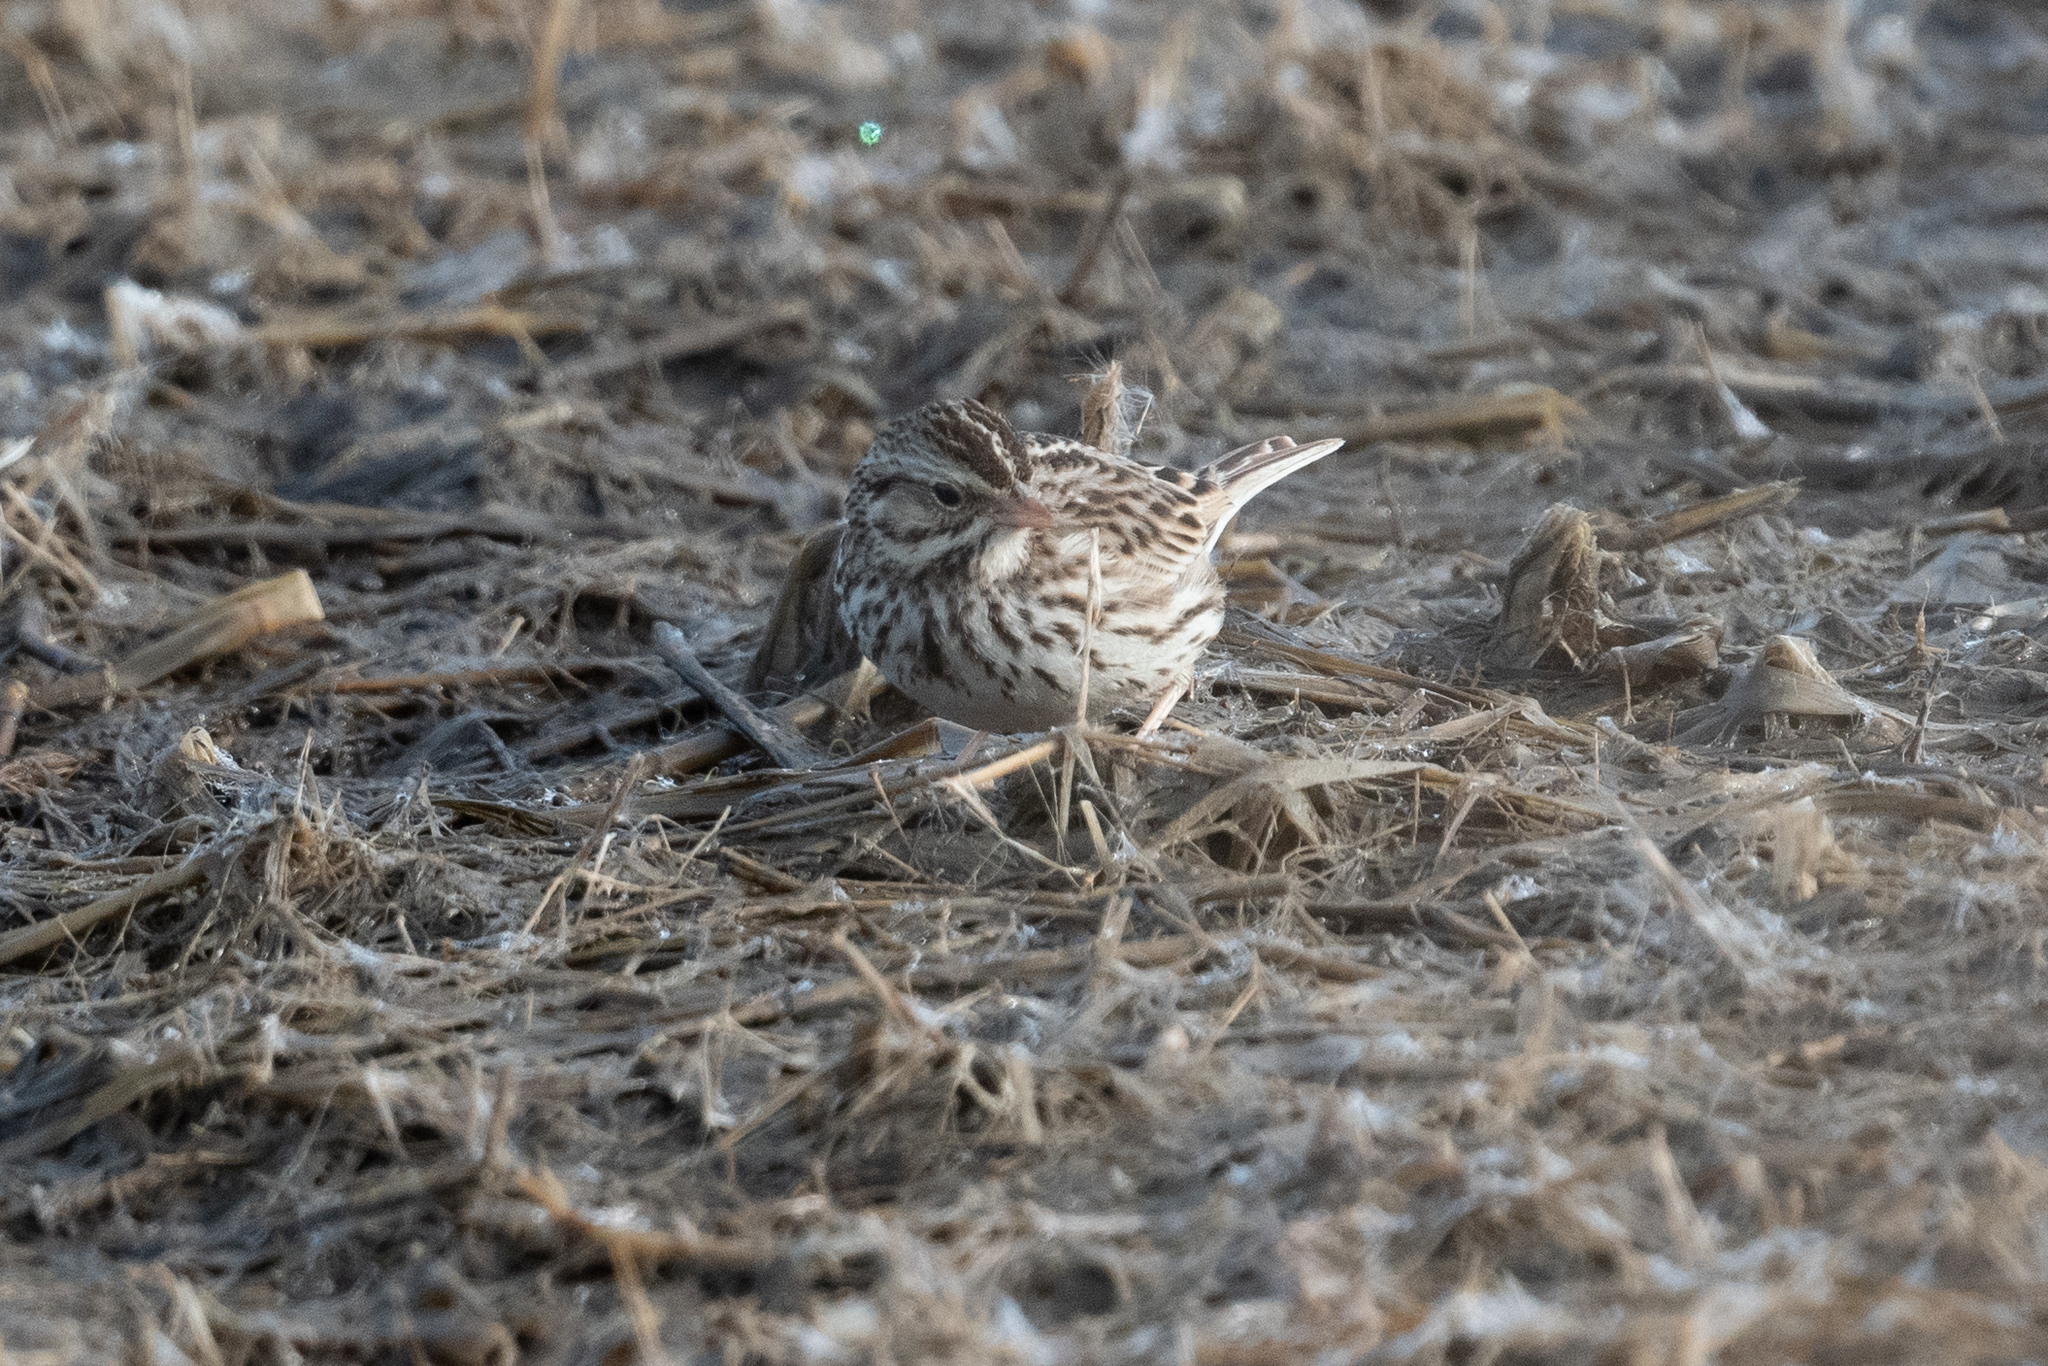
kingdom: Animalia
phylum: Chordata
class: Aves
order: Passeriformes
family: Passerellidae
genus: Passerculus
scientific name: Passerculus sandwichensis
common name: Savannah sparrow
